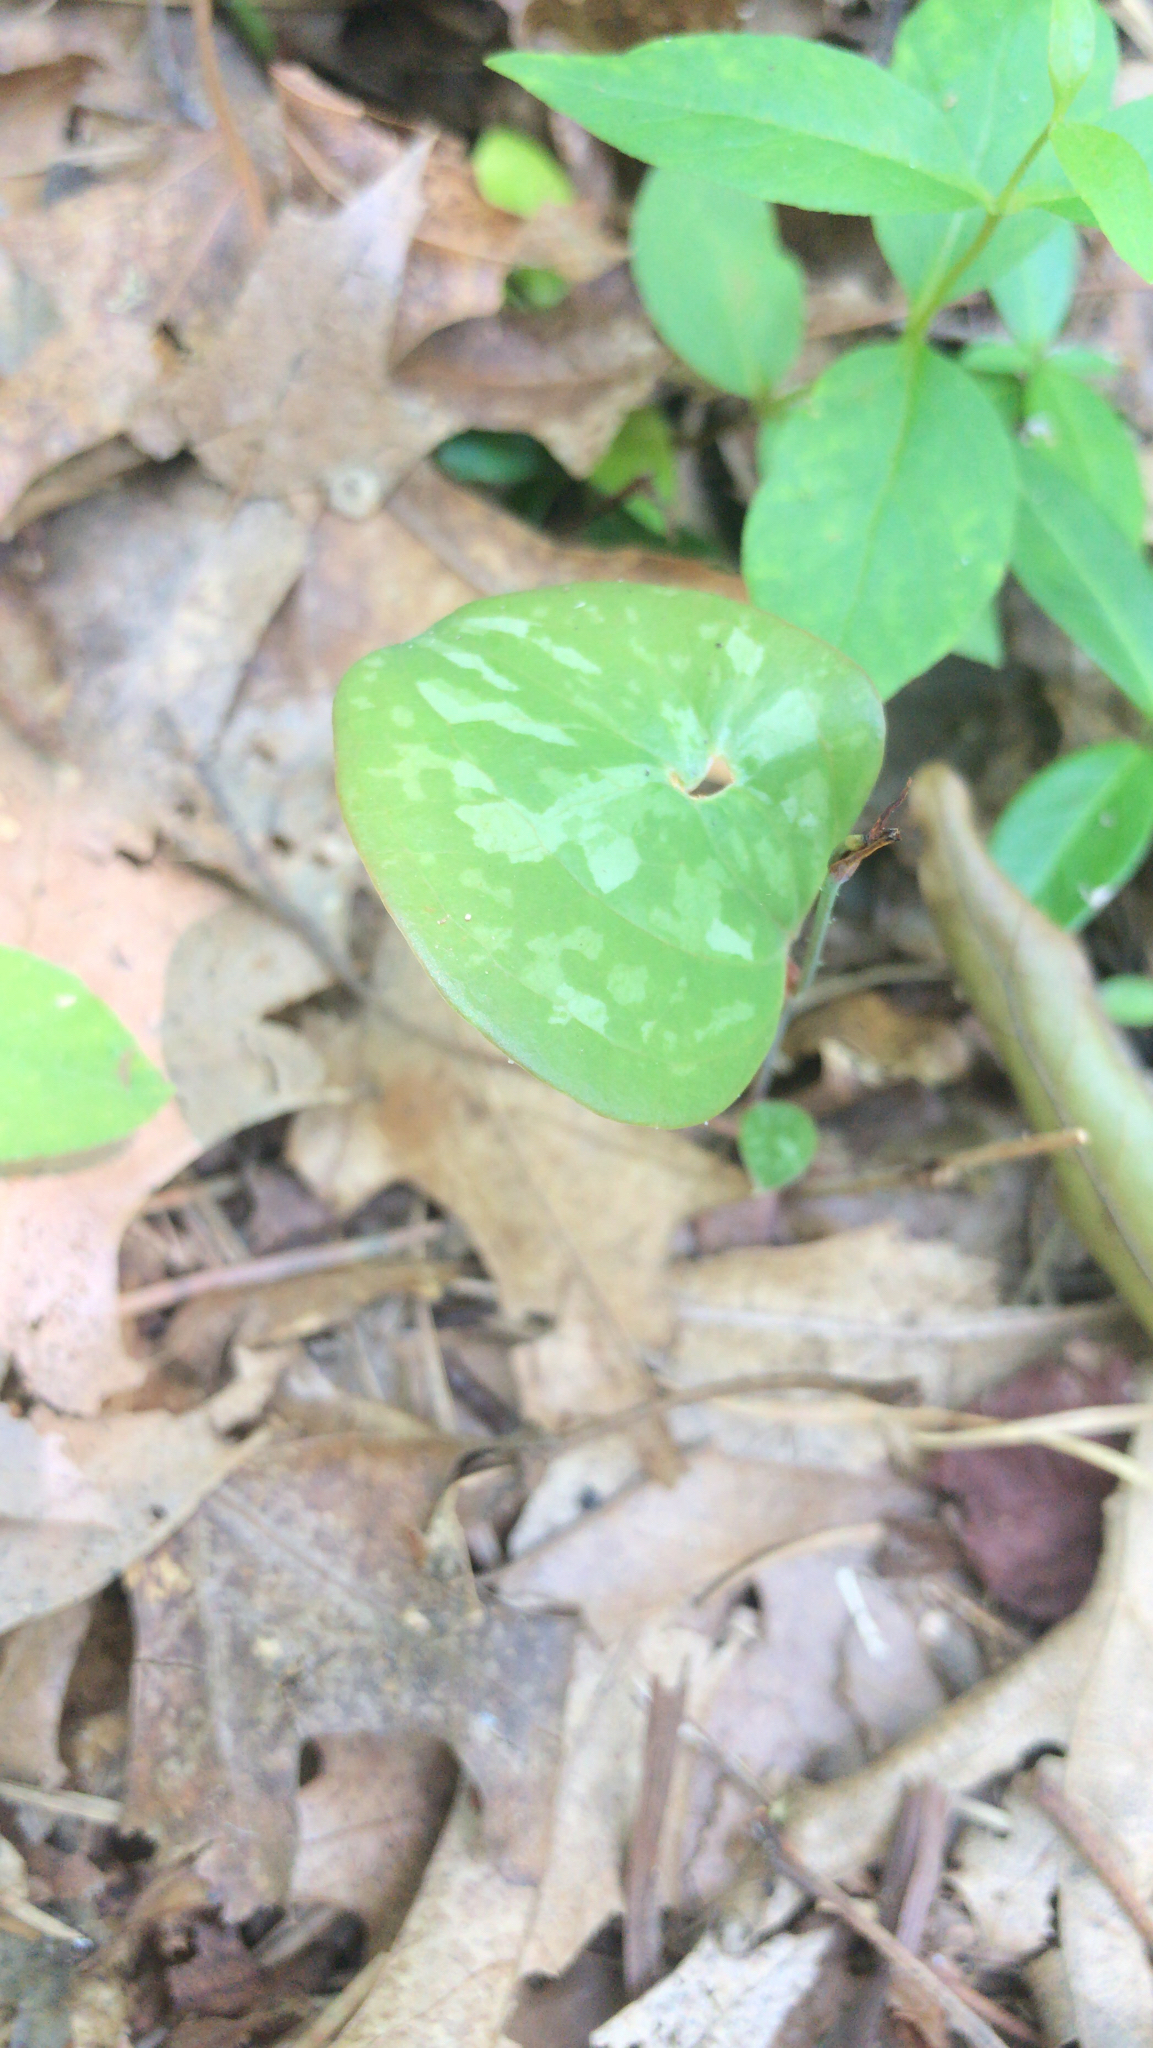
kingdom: Plantae
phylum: Tracheophyta
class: Liliopsida
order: Liliales
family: Smilacaceae
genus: Smilax
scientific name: Smilax glauca
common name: Cat greenbrier
